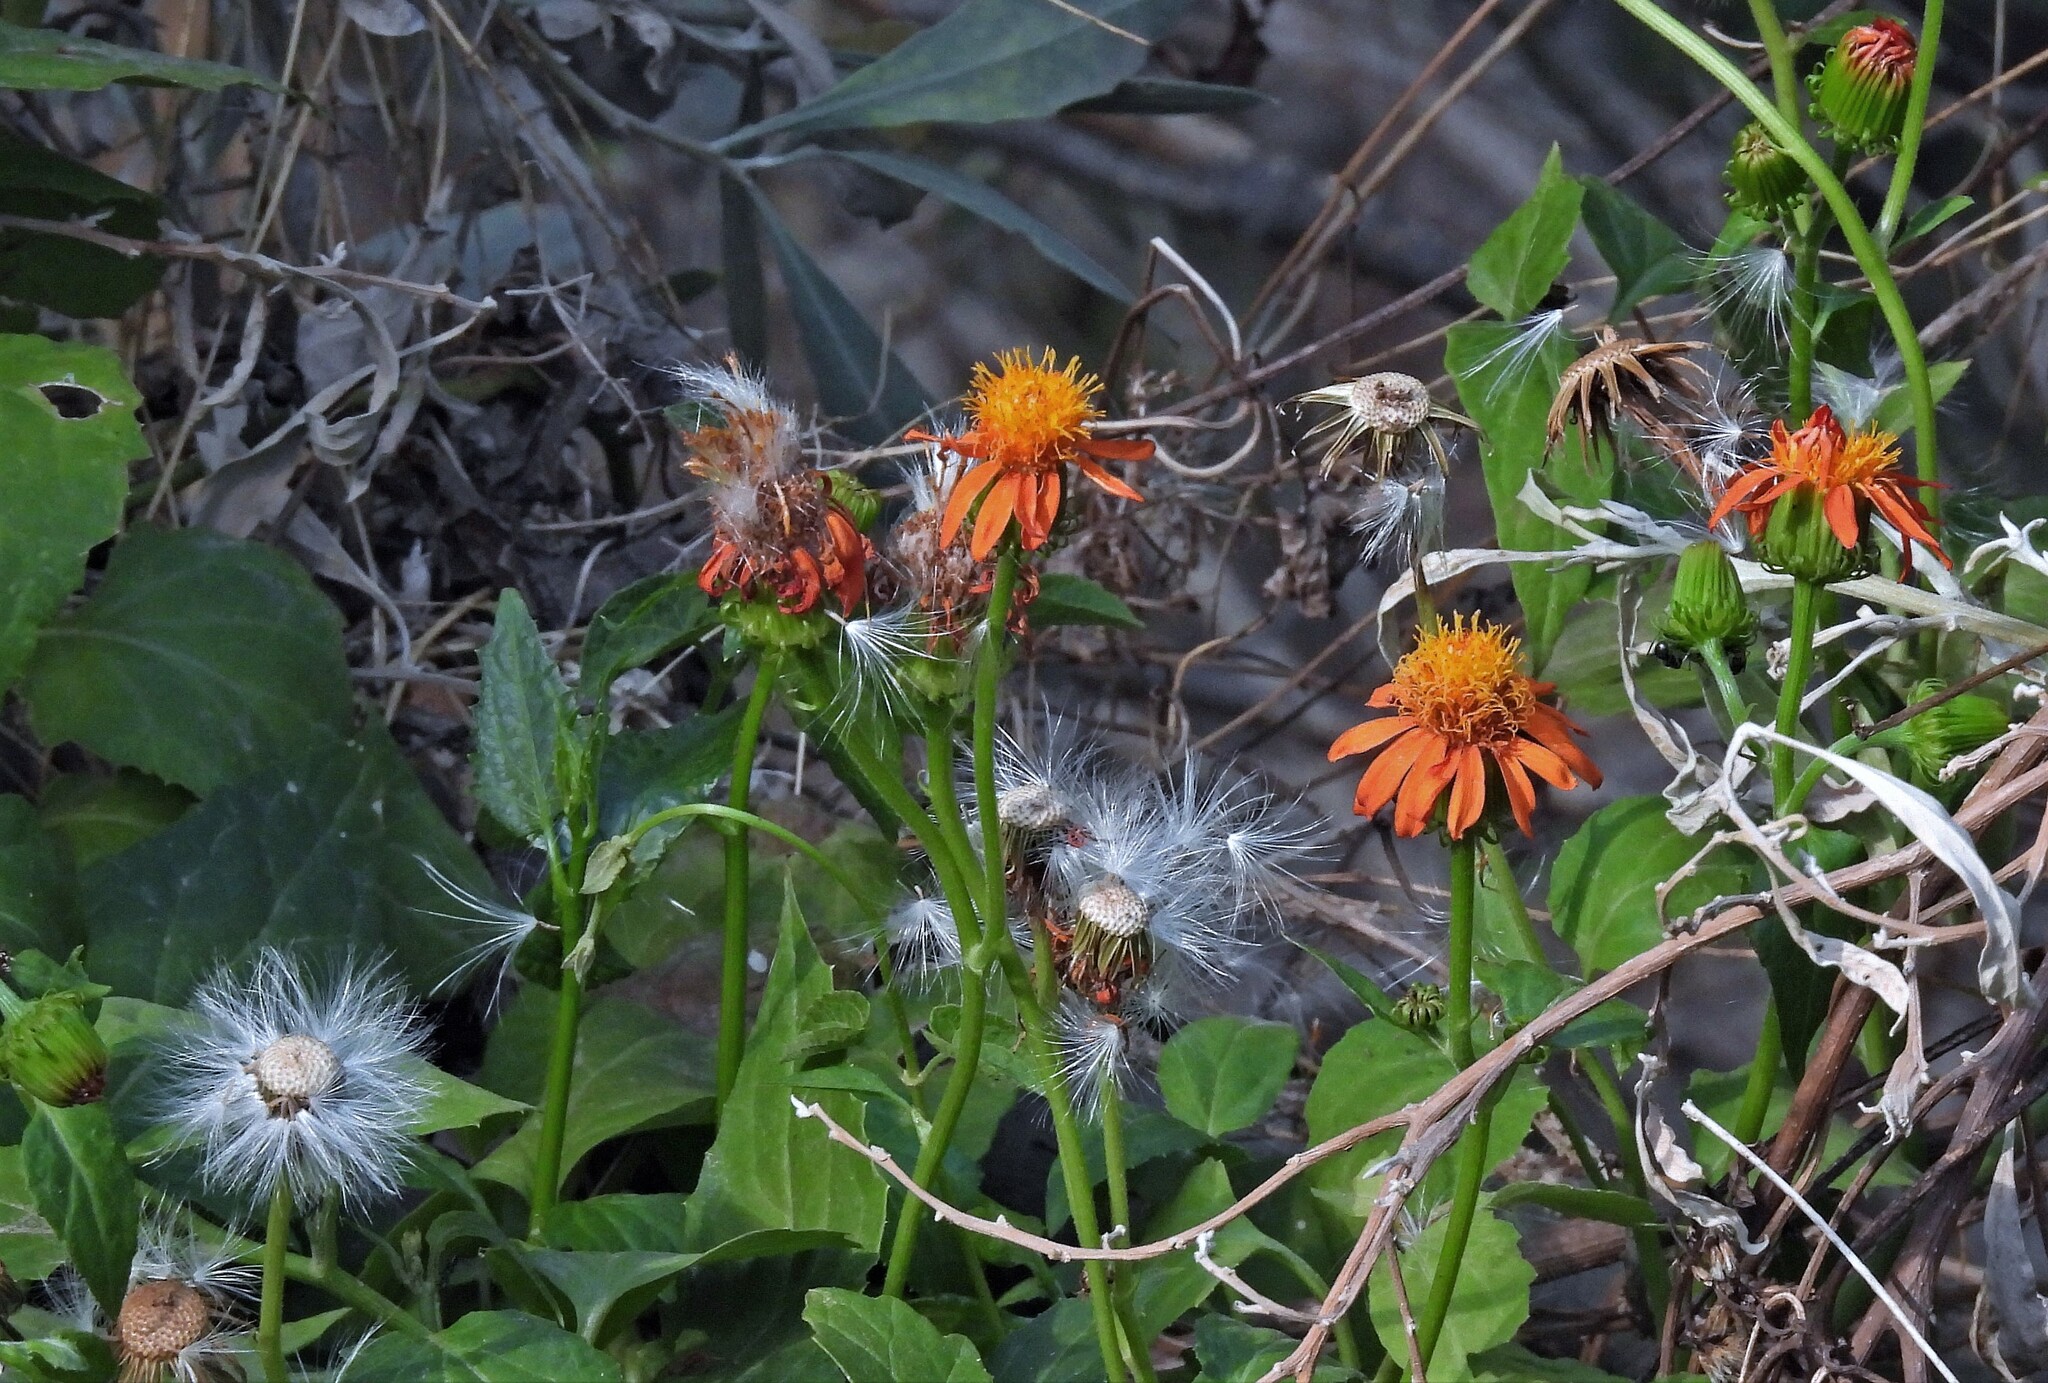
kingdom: Plantae
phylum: Tracheophyta
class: Magnoliopsida
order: Asterales
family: Asteraceae
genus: Pseudogynoxys
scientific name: Pseudogynoxys cumingii
